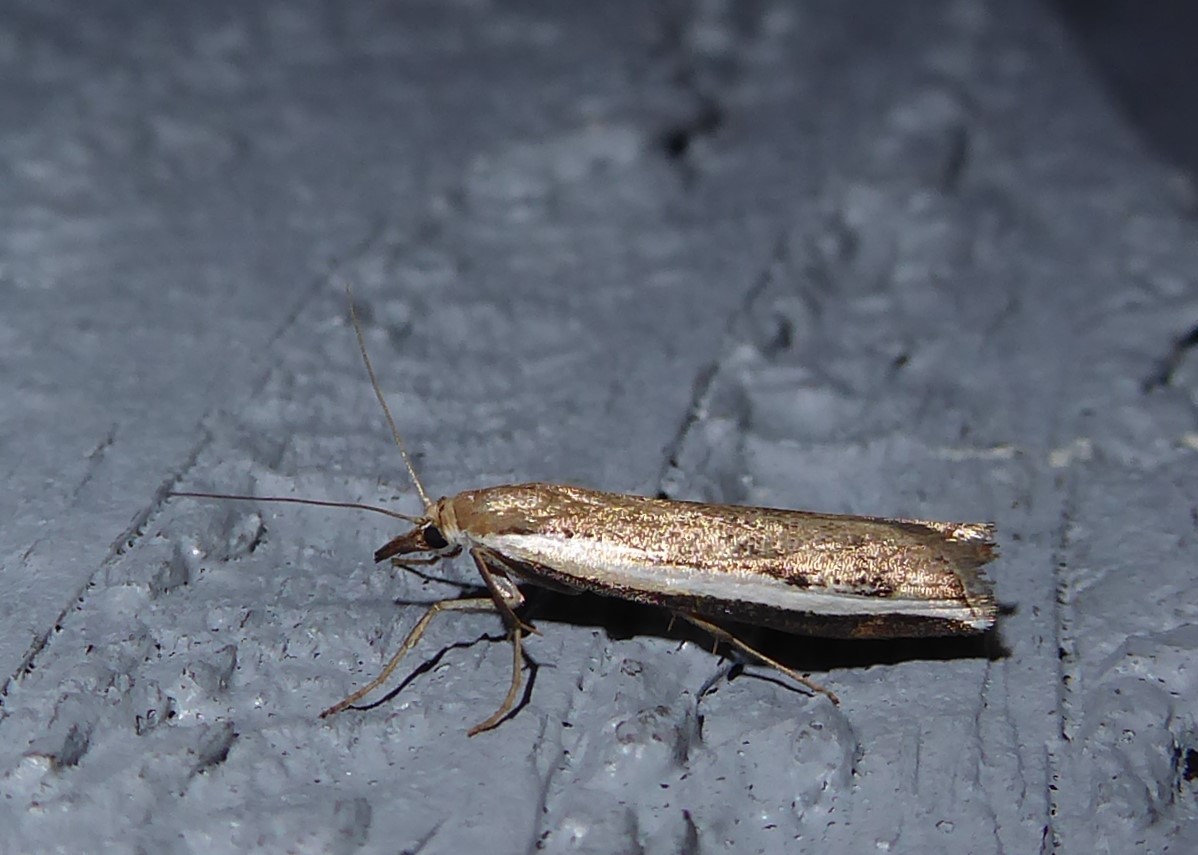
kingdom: Animalia
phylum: Arthropoda
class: Insecta
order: Lepidoptera
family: Crambidae
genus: Orocrambus
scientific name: Orocrambus flexuosellus
